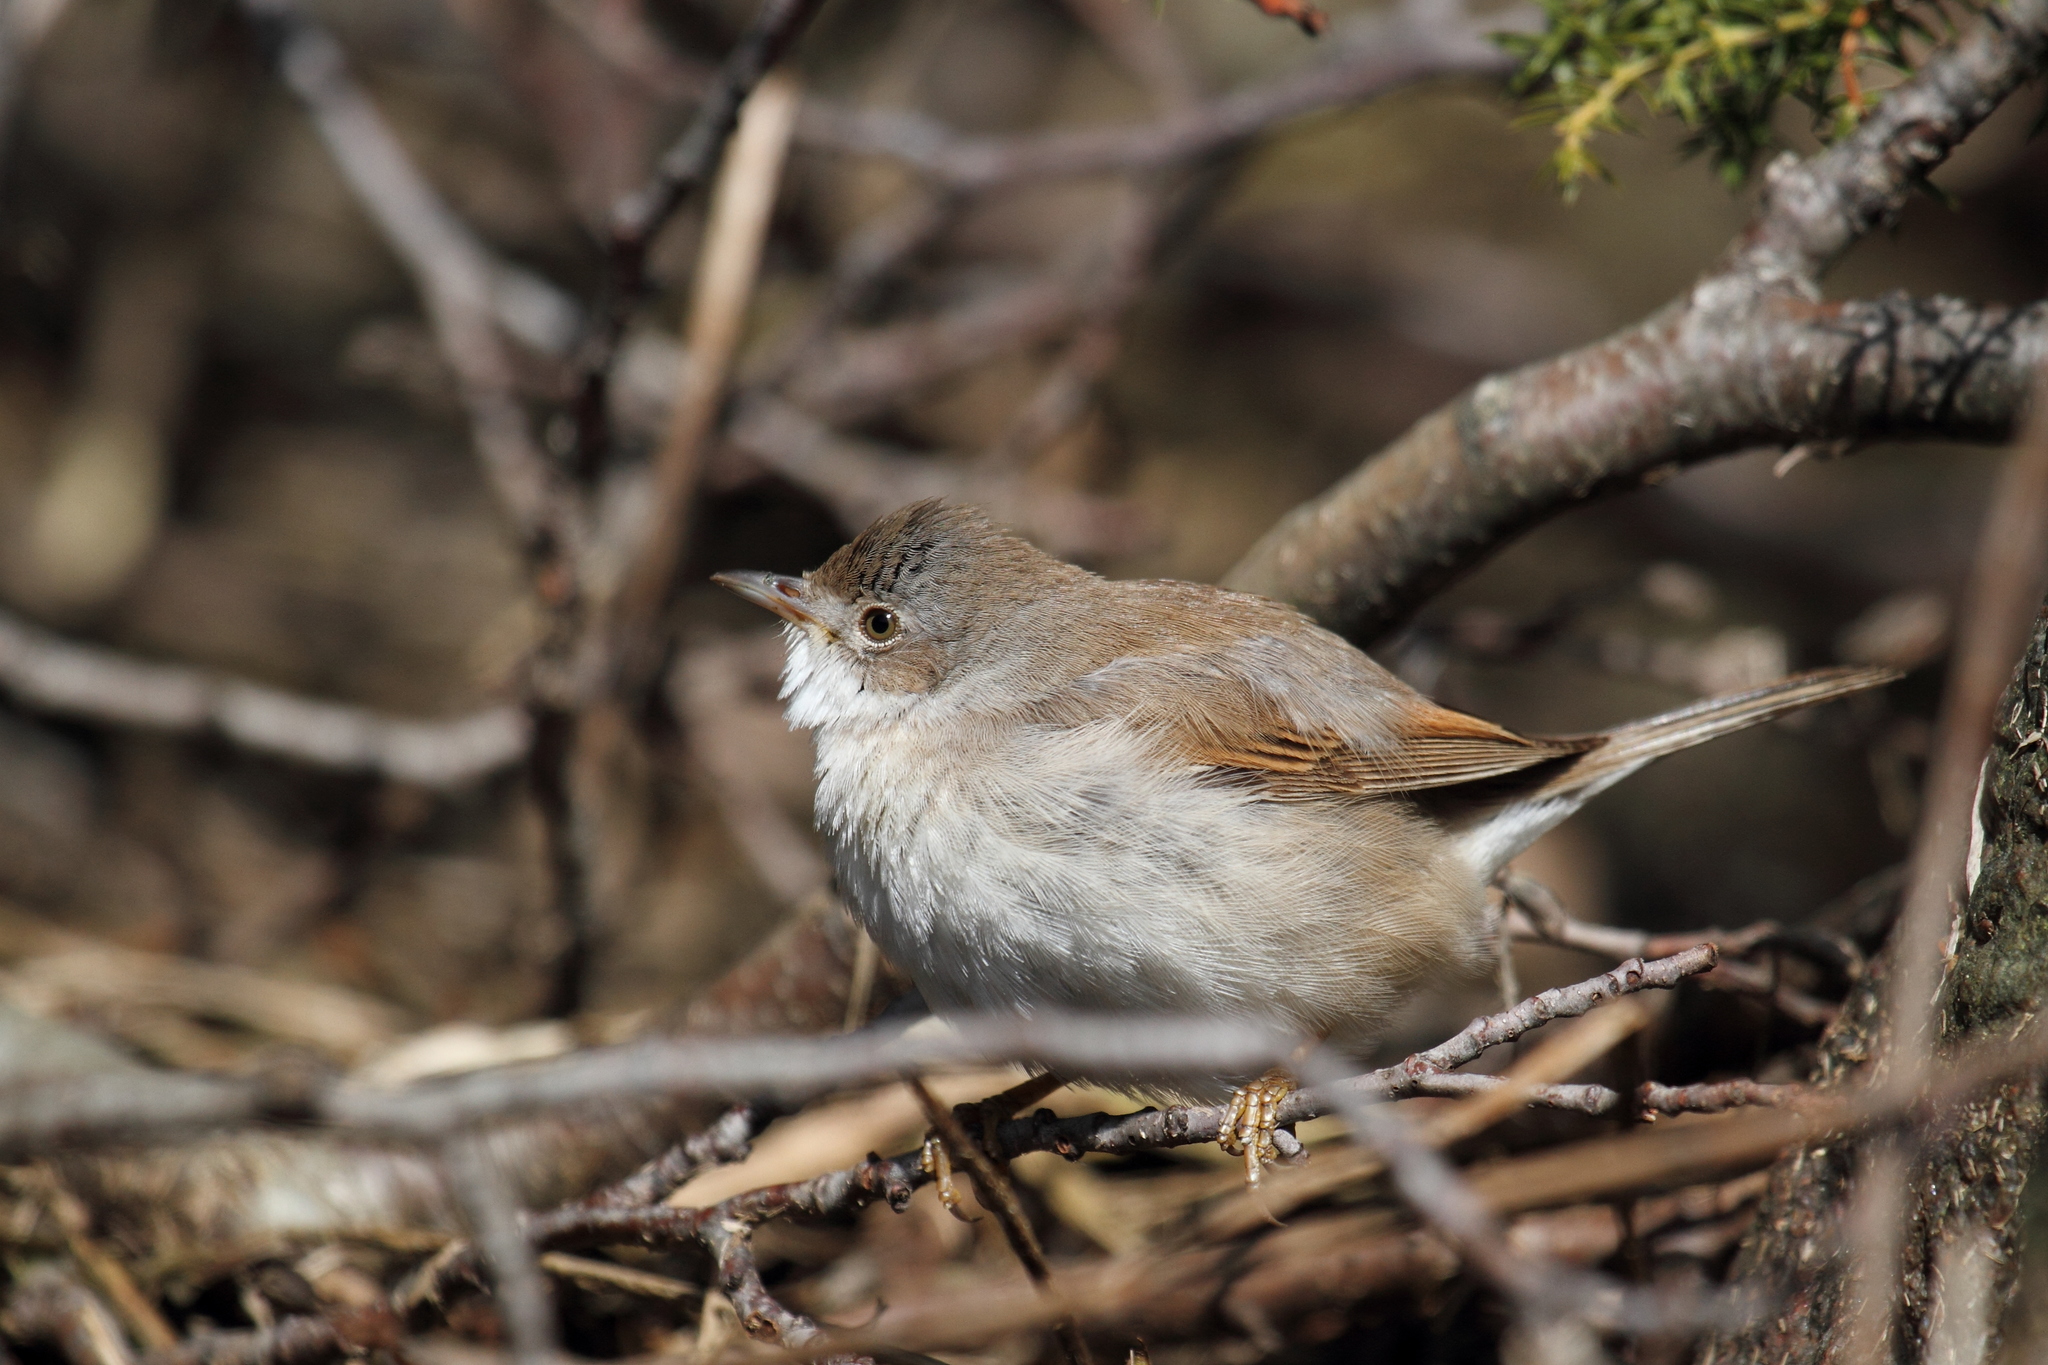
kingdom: Animalia
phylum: Chordata
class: Aves
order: Passeriformes
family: Sylviidae
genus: Sylvia
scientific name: Sylvia communis
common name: Common whitethroat
